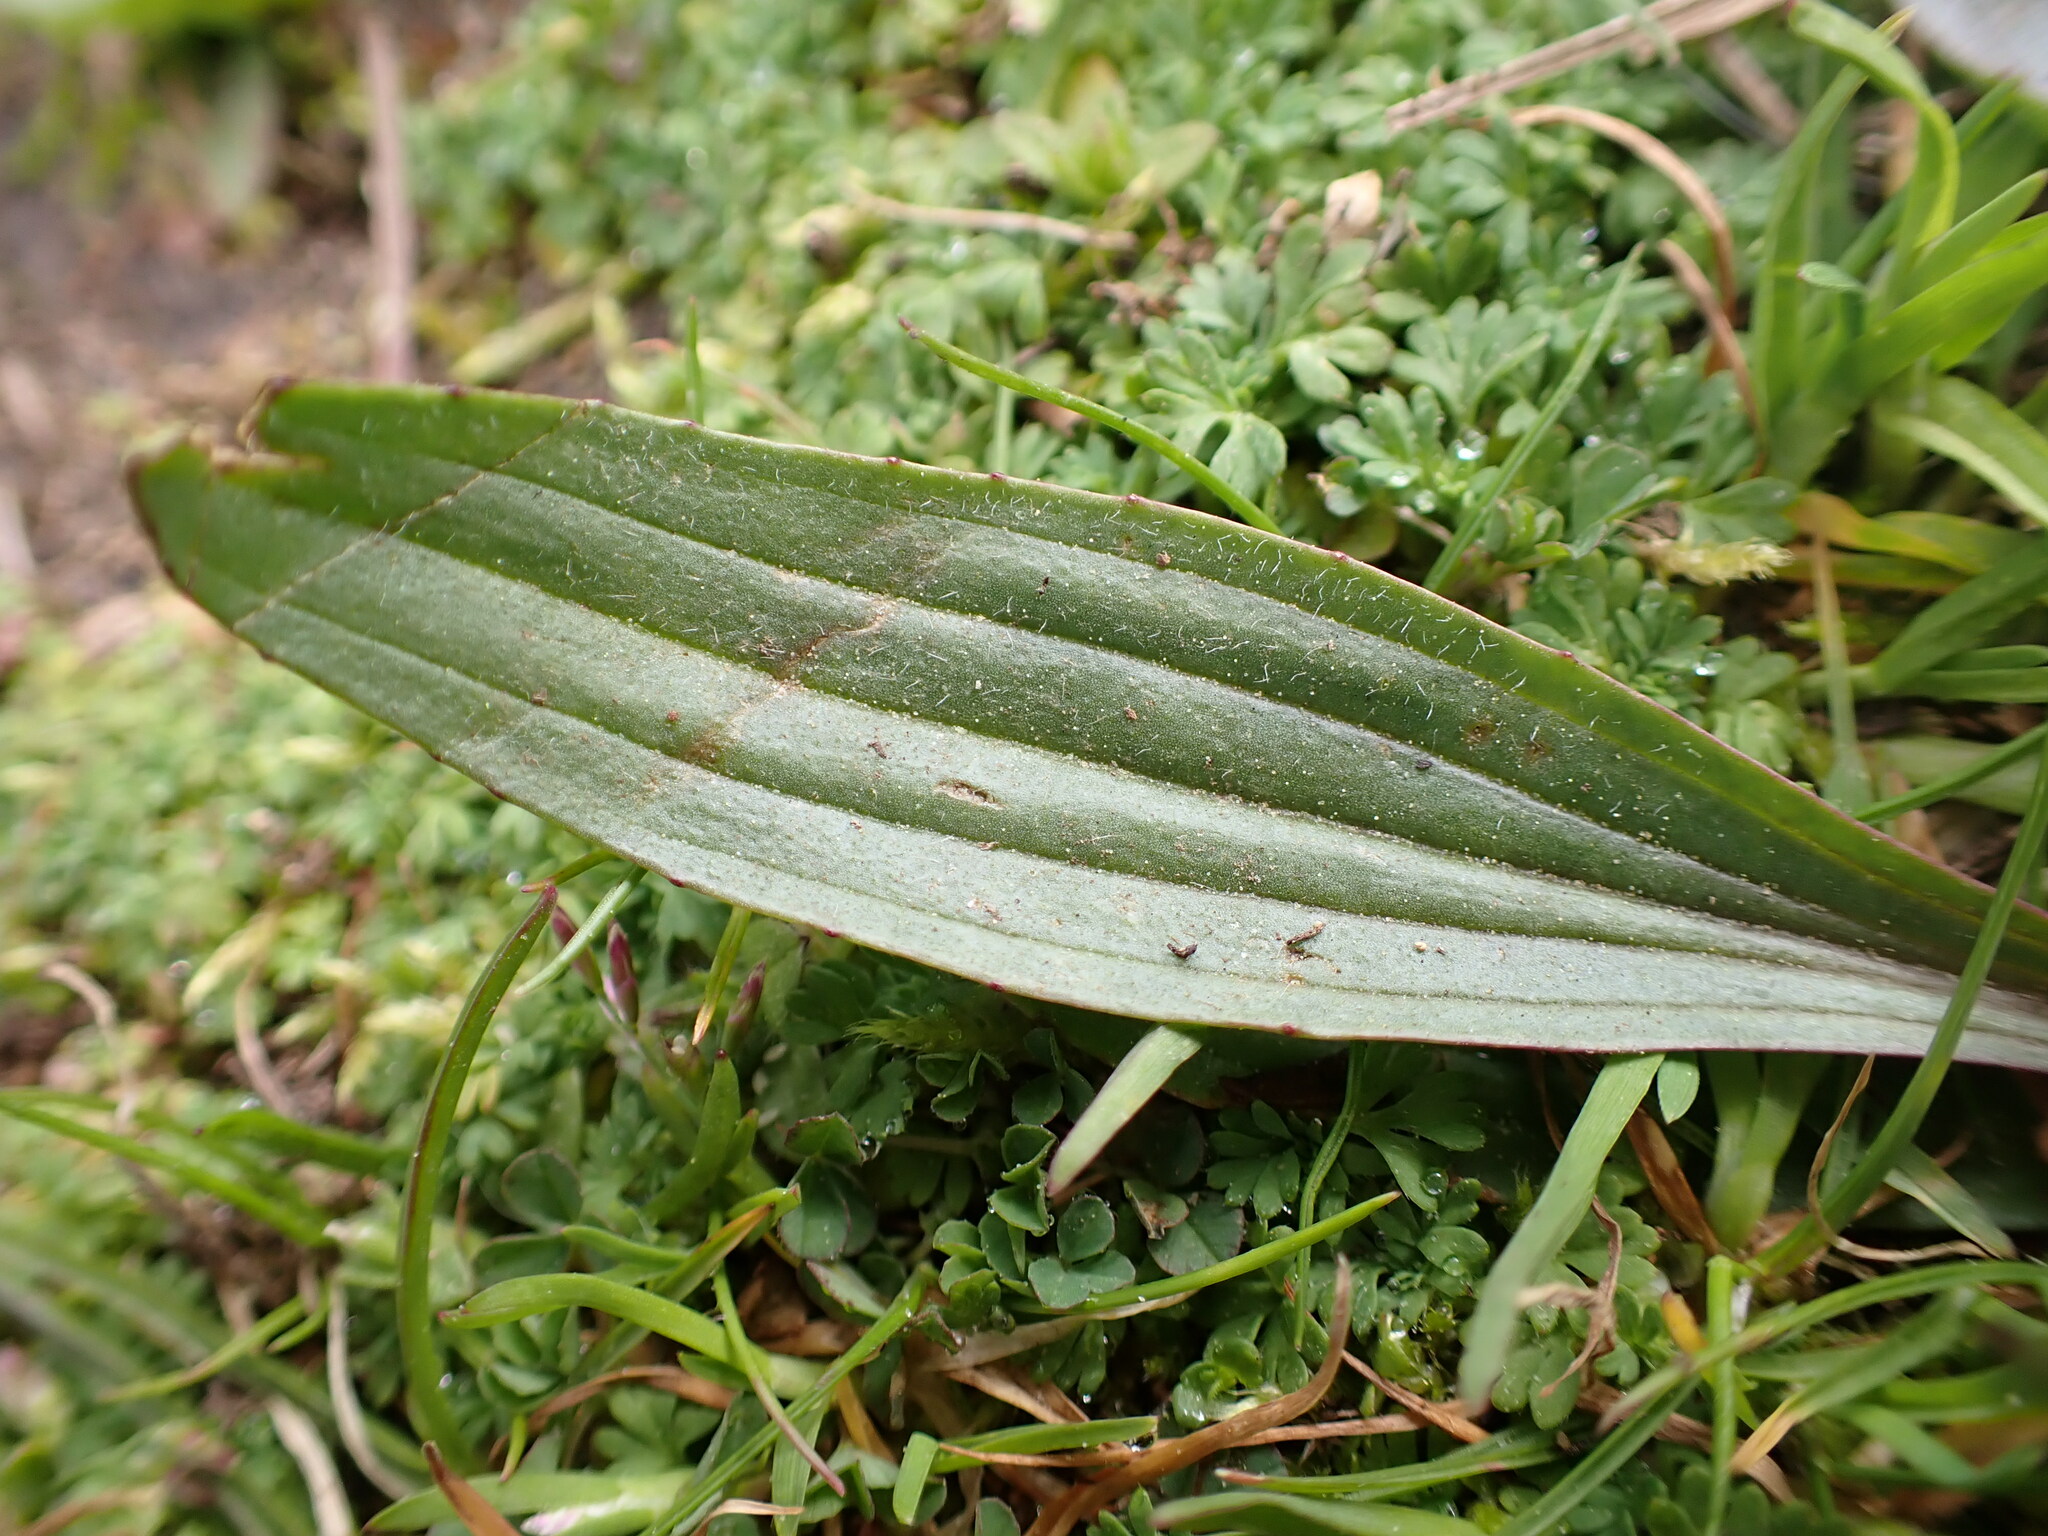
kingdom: Plantae
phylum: Tracheophyta
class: Magnoliopsida
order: Lamiales
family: Plantaginaceae
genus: Plantago
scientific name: Plantago lanceolata
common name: Ribwort plantain
